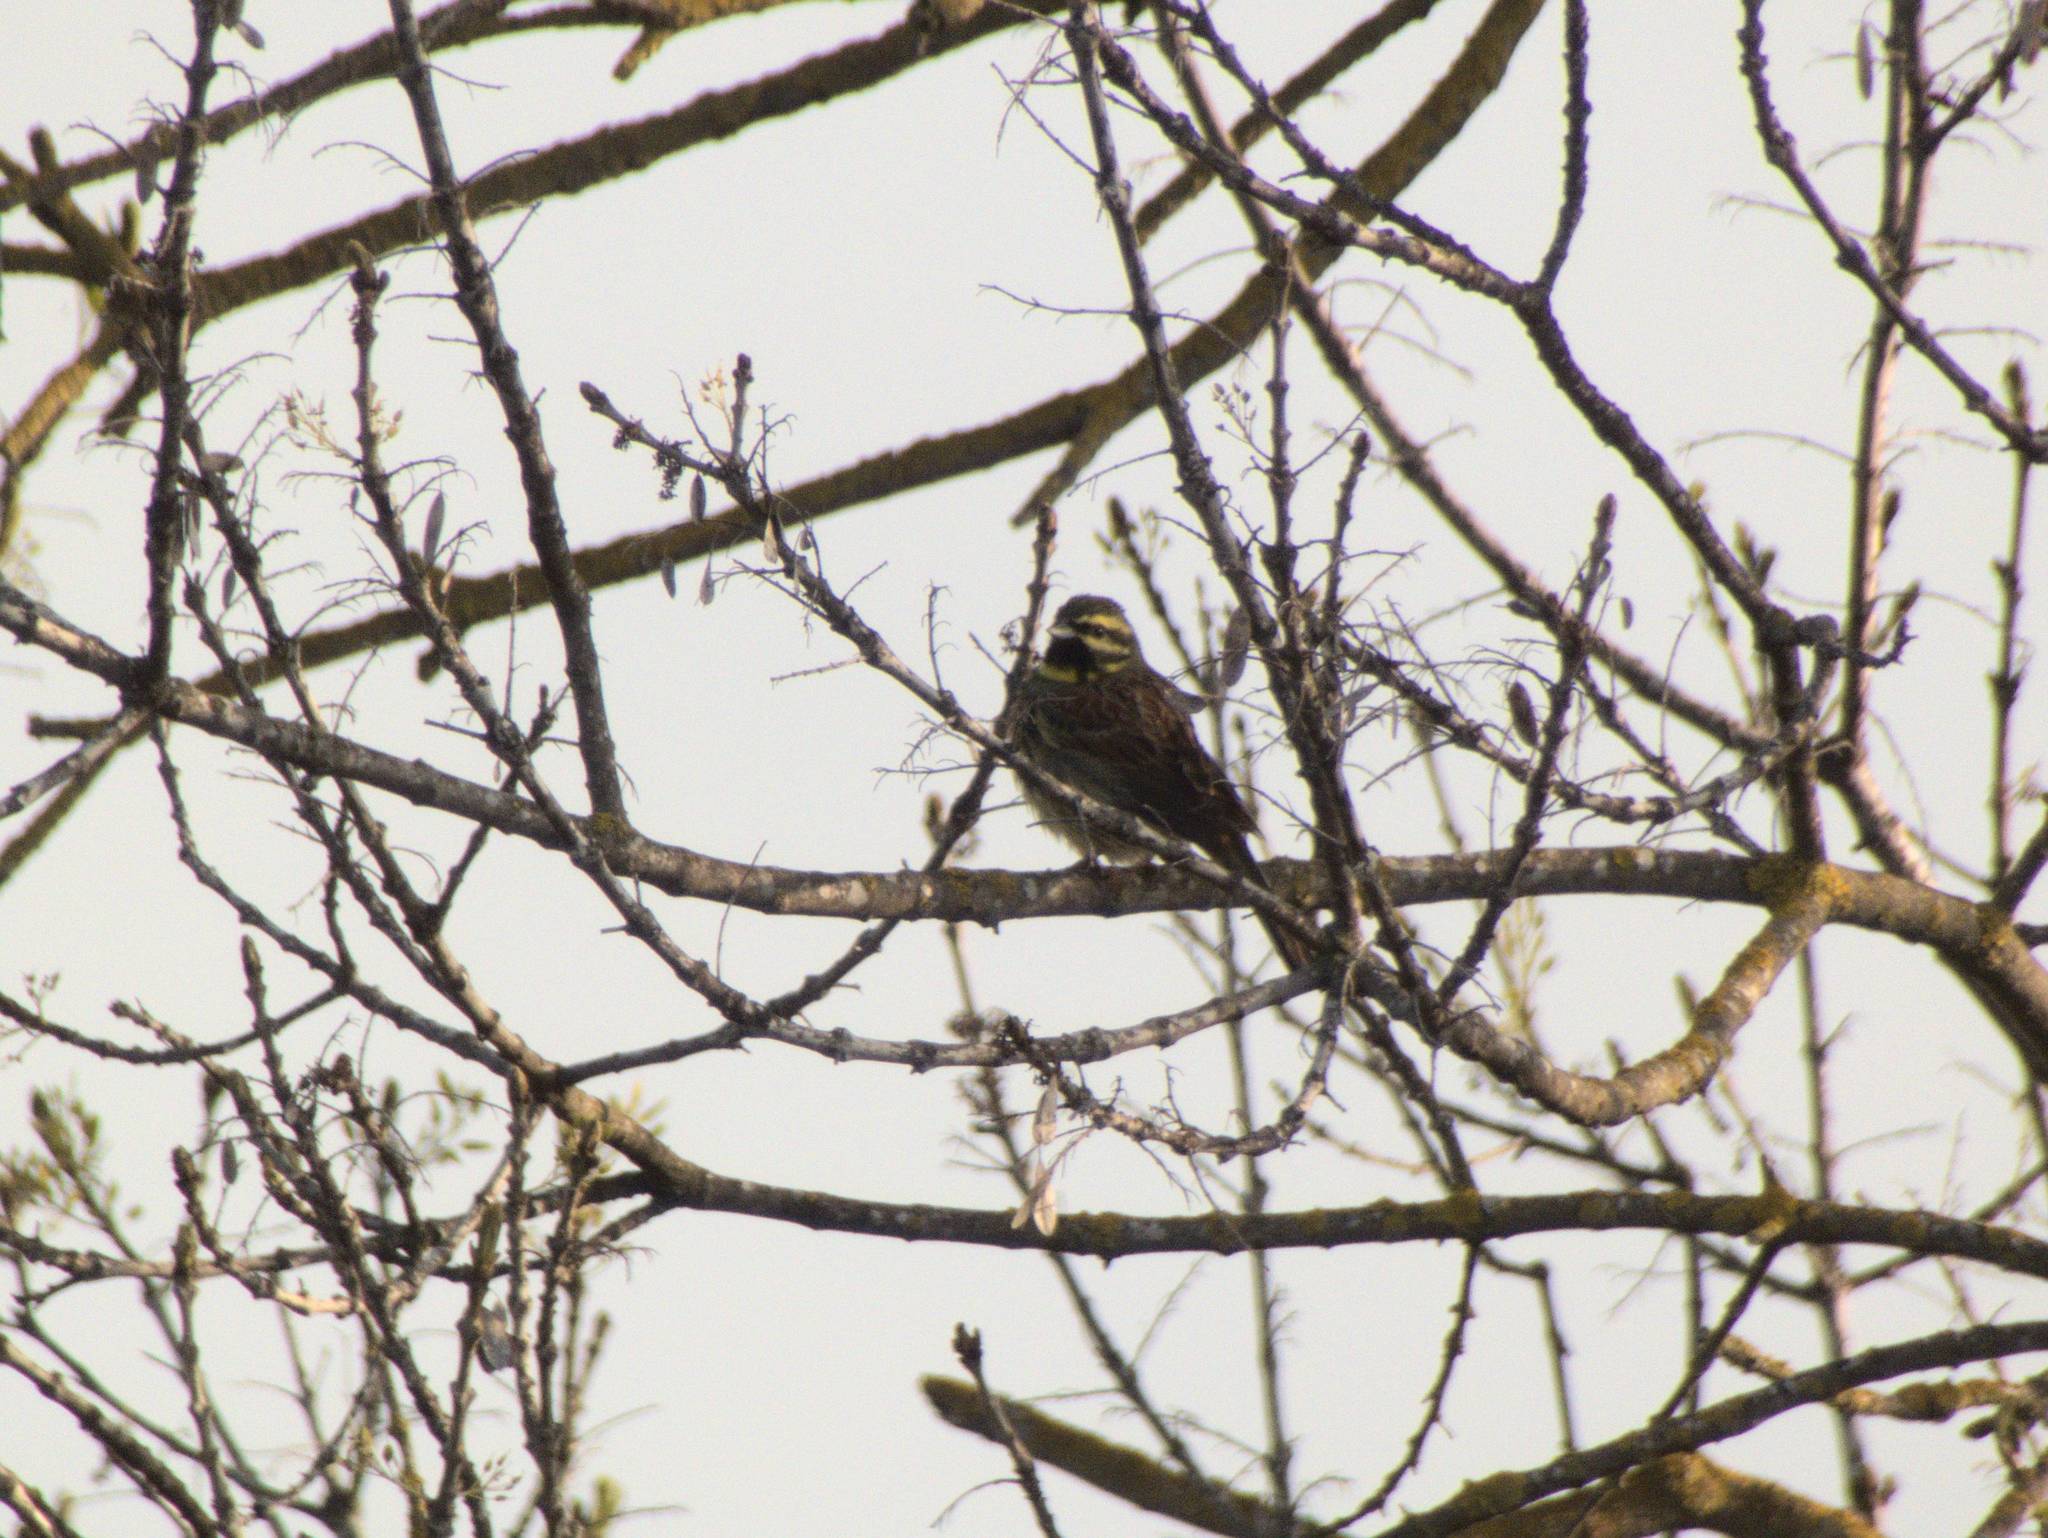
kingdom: Animalia
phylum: Chordata
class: Aves
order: Passeriformes
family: Emberizidae
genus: Emberiza
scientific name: Emberiza cirlus
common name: Cirl bunting
